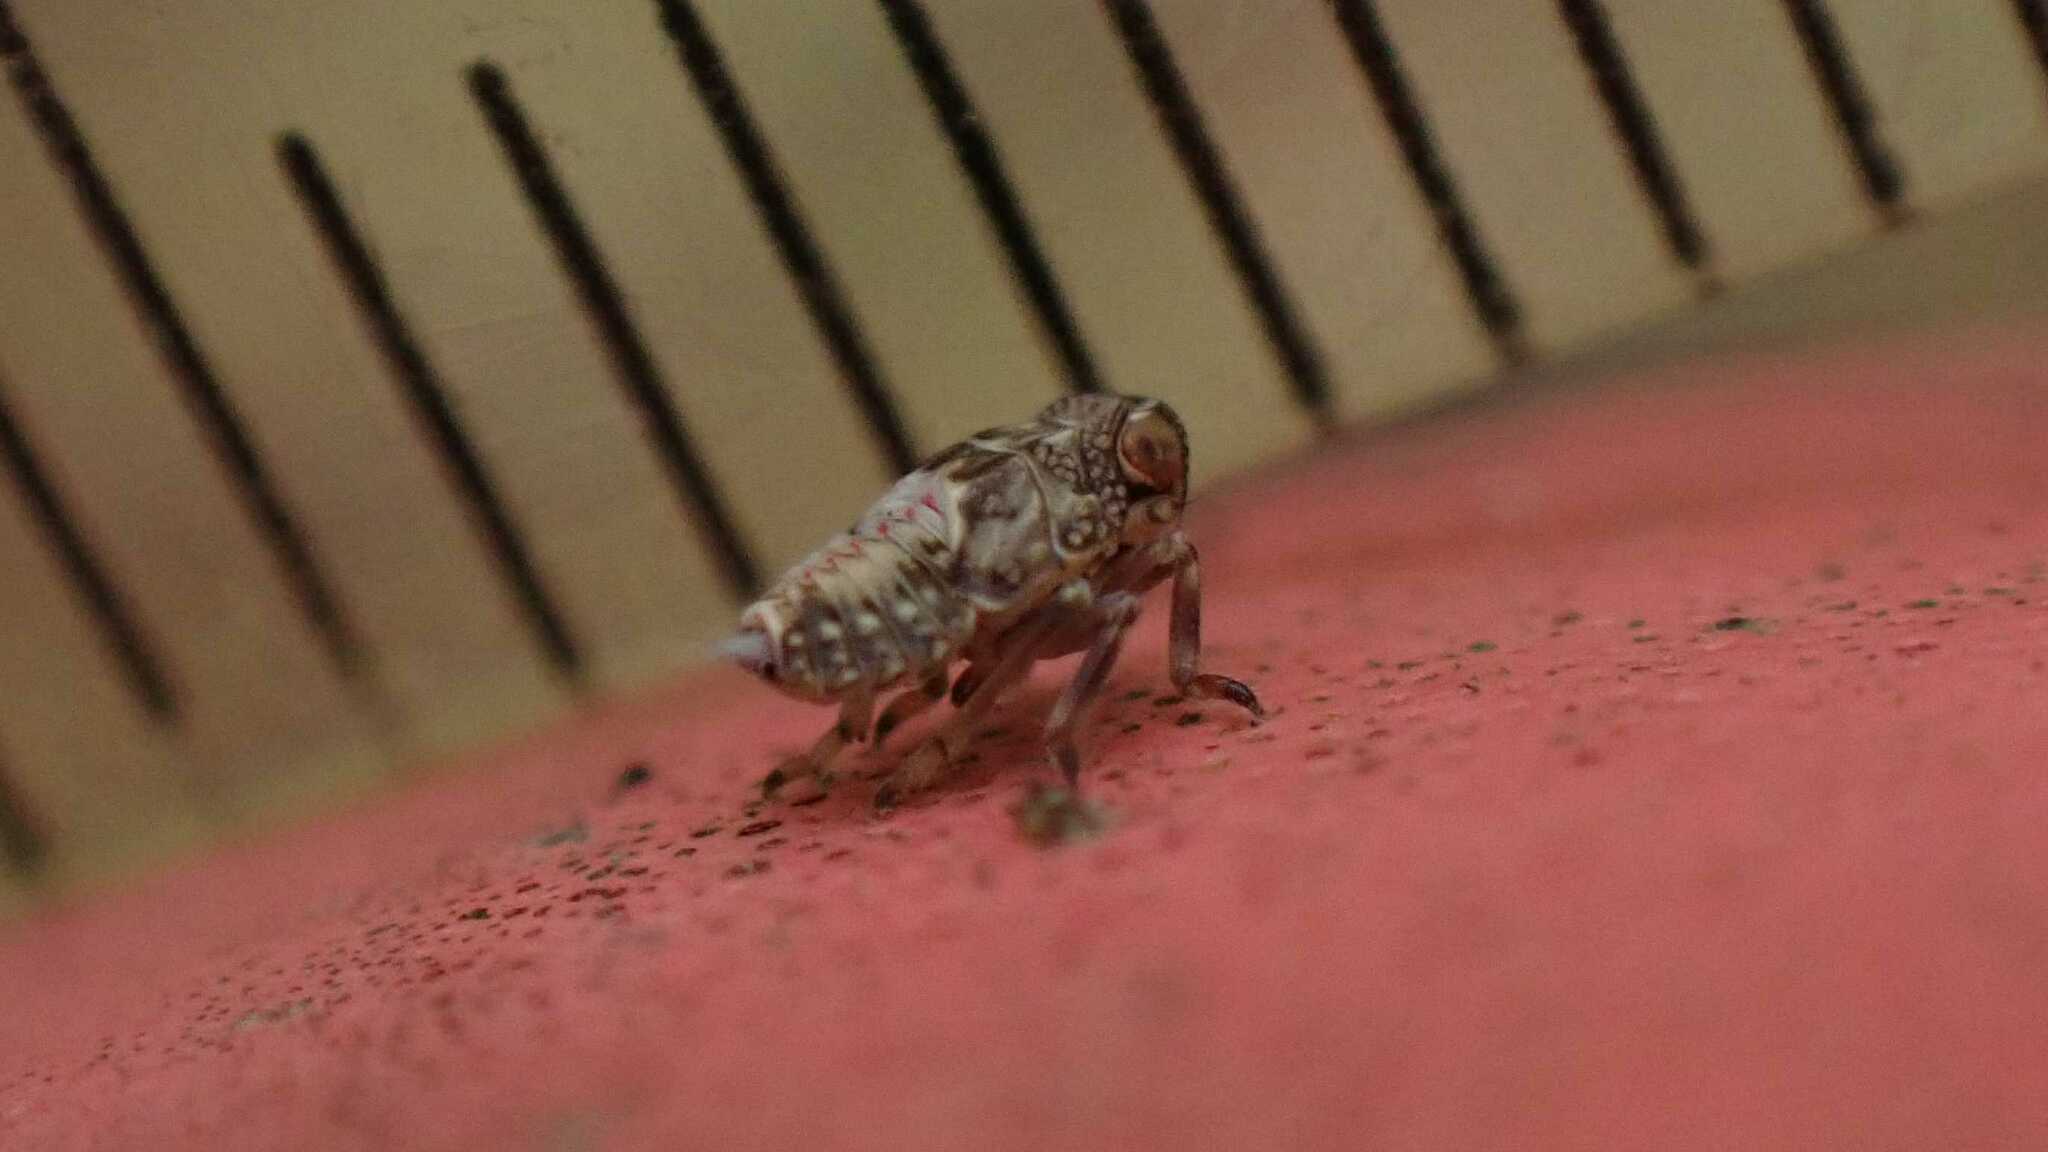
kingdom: Animalia
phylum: Arthropoda
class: Insecta
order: Hemiptera
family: Issidae
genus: Issus
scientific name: Issus coleoptratus
